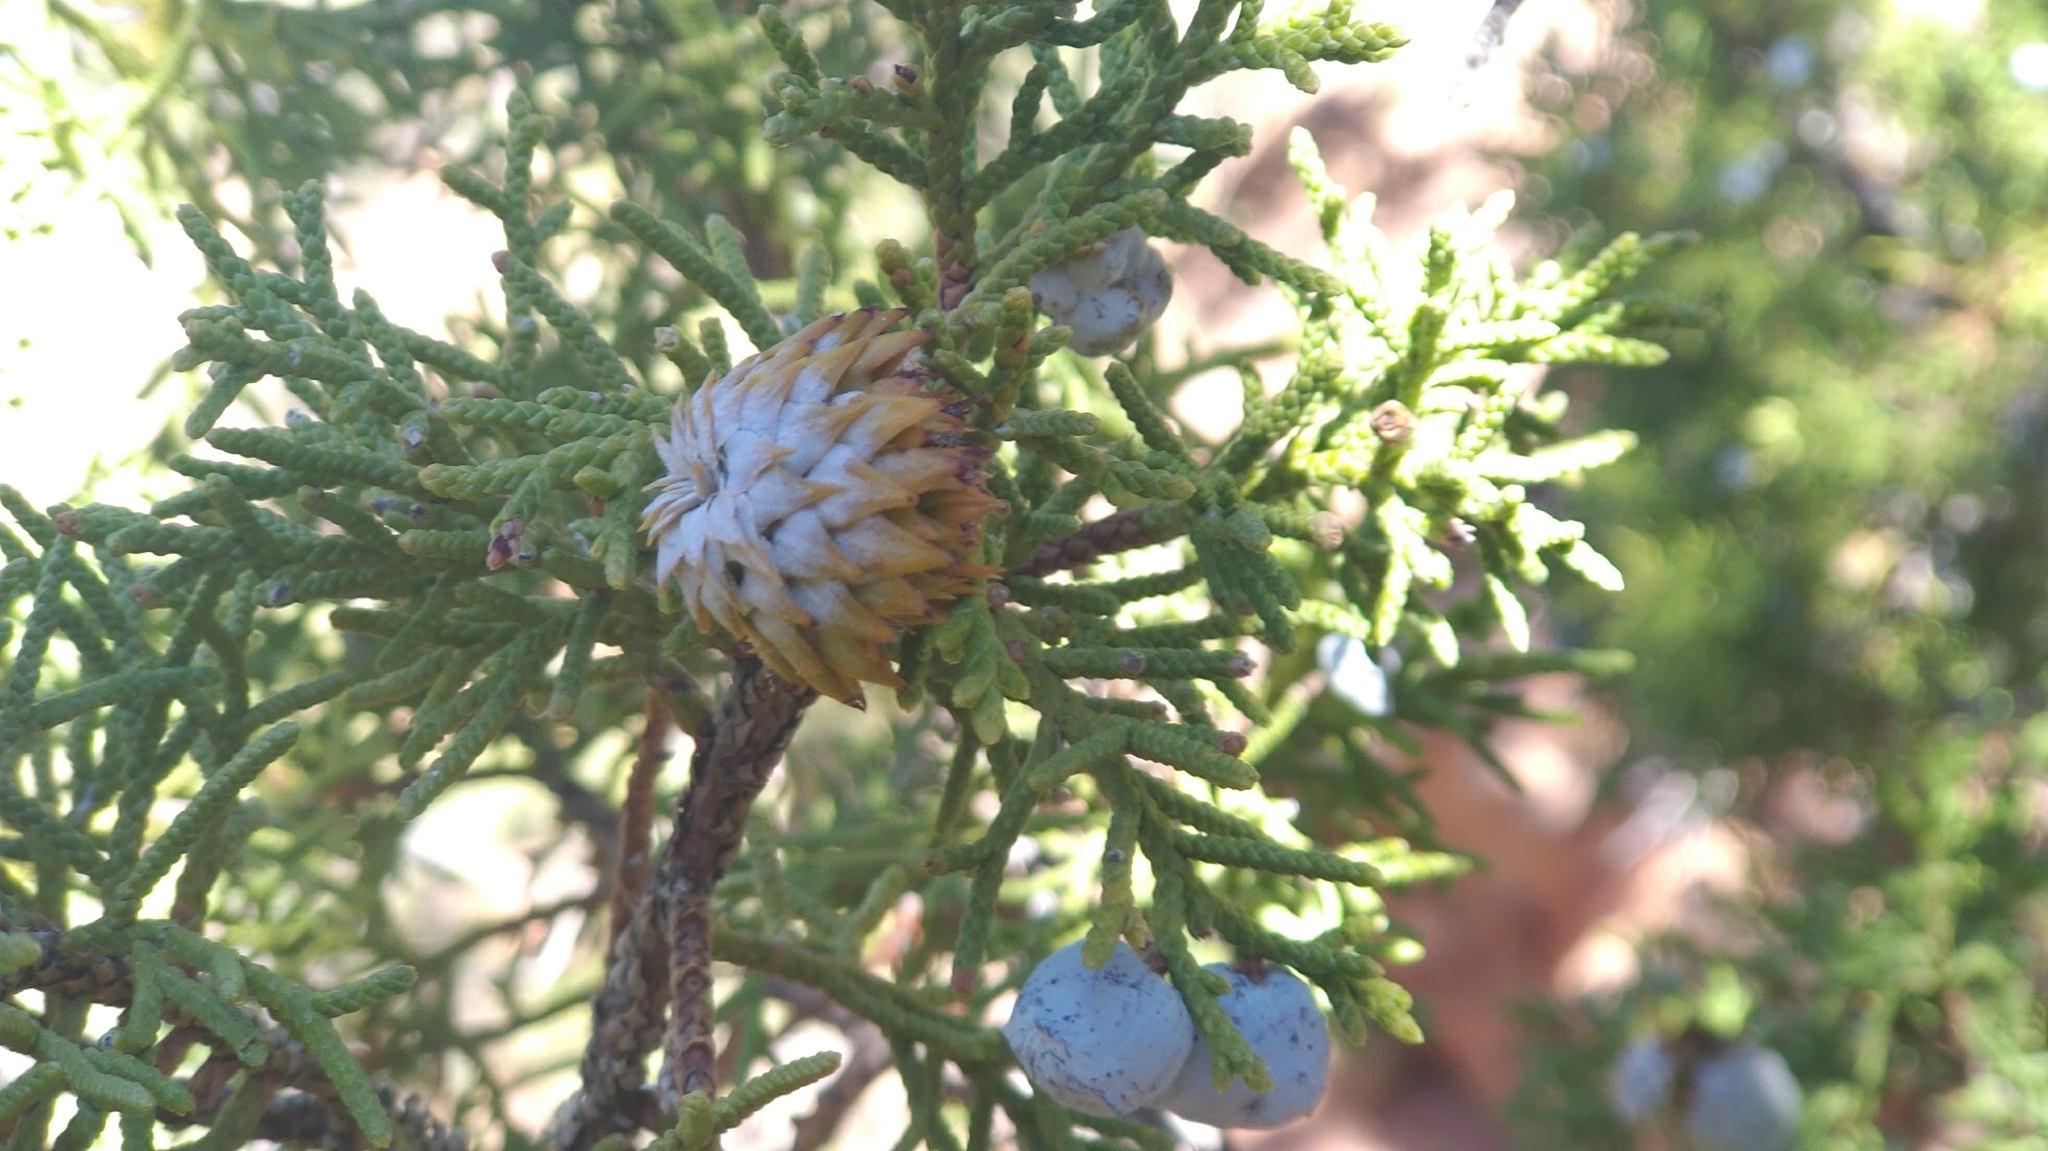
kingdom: Plantae
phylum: Tracheophyta
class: Pinopsida
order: Pinales
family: Cupressaceae
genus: Juniperus
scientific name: Juniperus osteosperma
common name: Utah juniper
